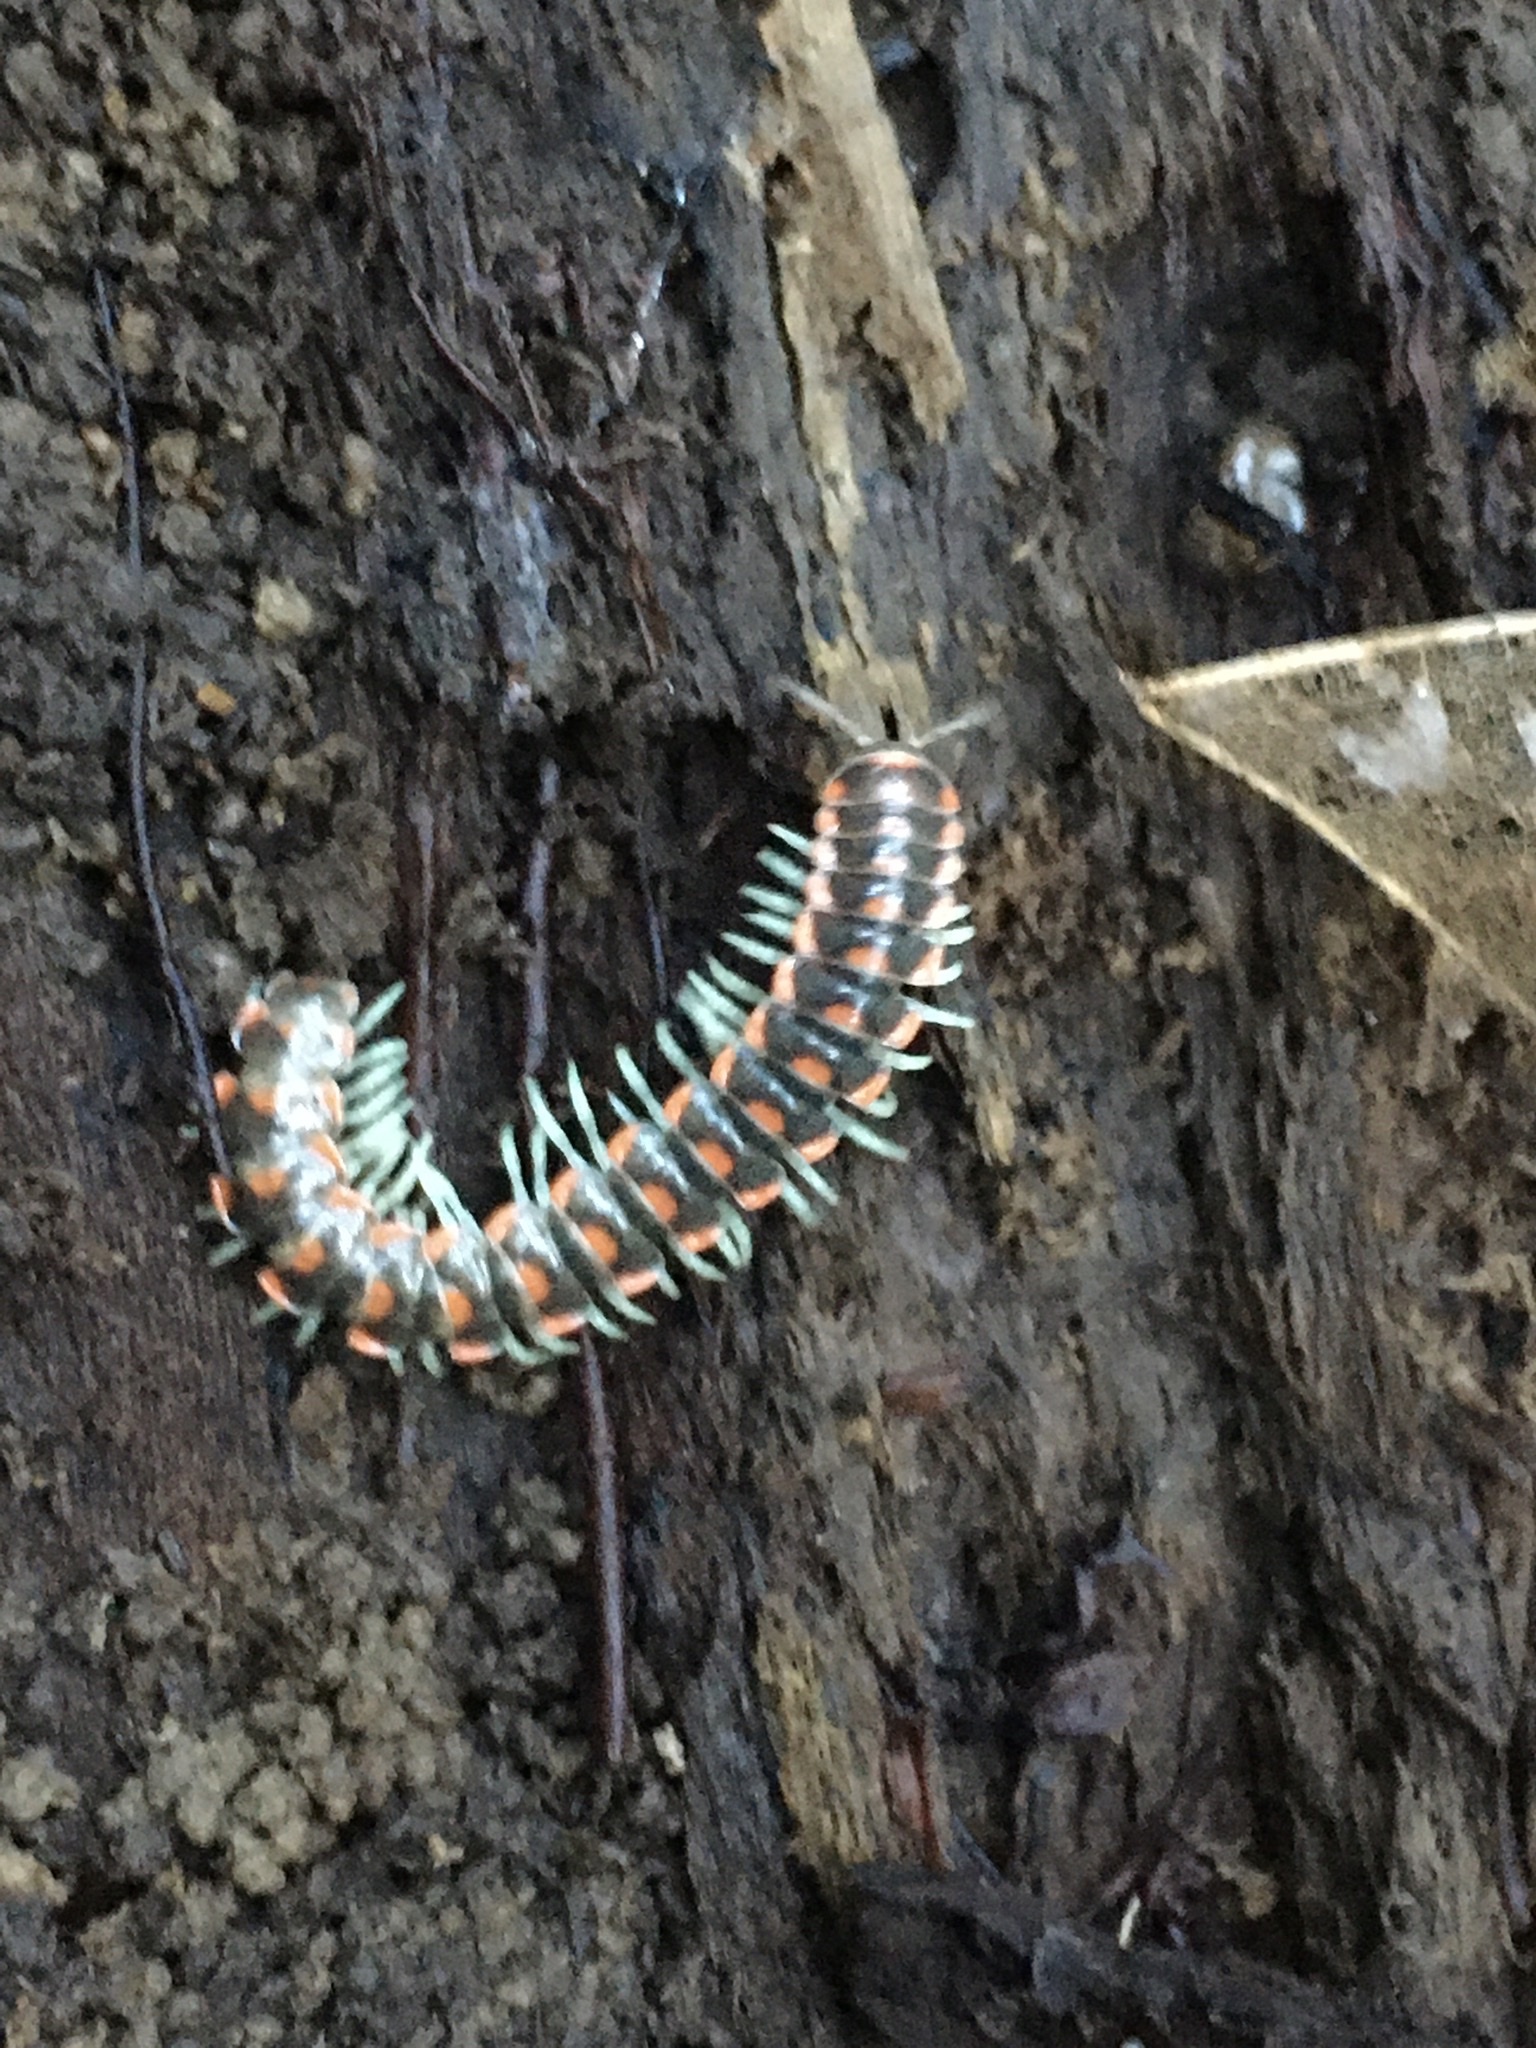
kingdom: Animalia
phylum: Arthropoda
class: Diplopoda
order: Polydesmida
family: Xystodesmidae
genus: Euryurus
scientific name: Euryurus evides
